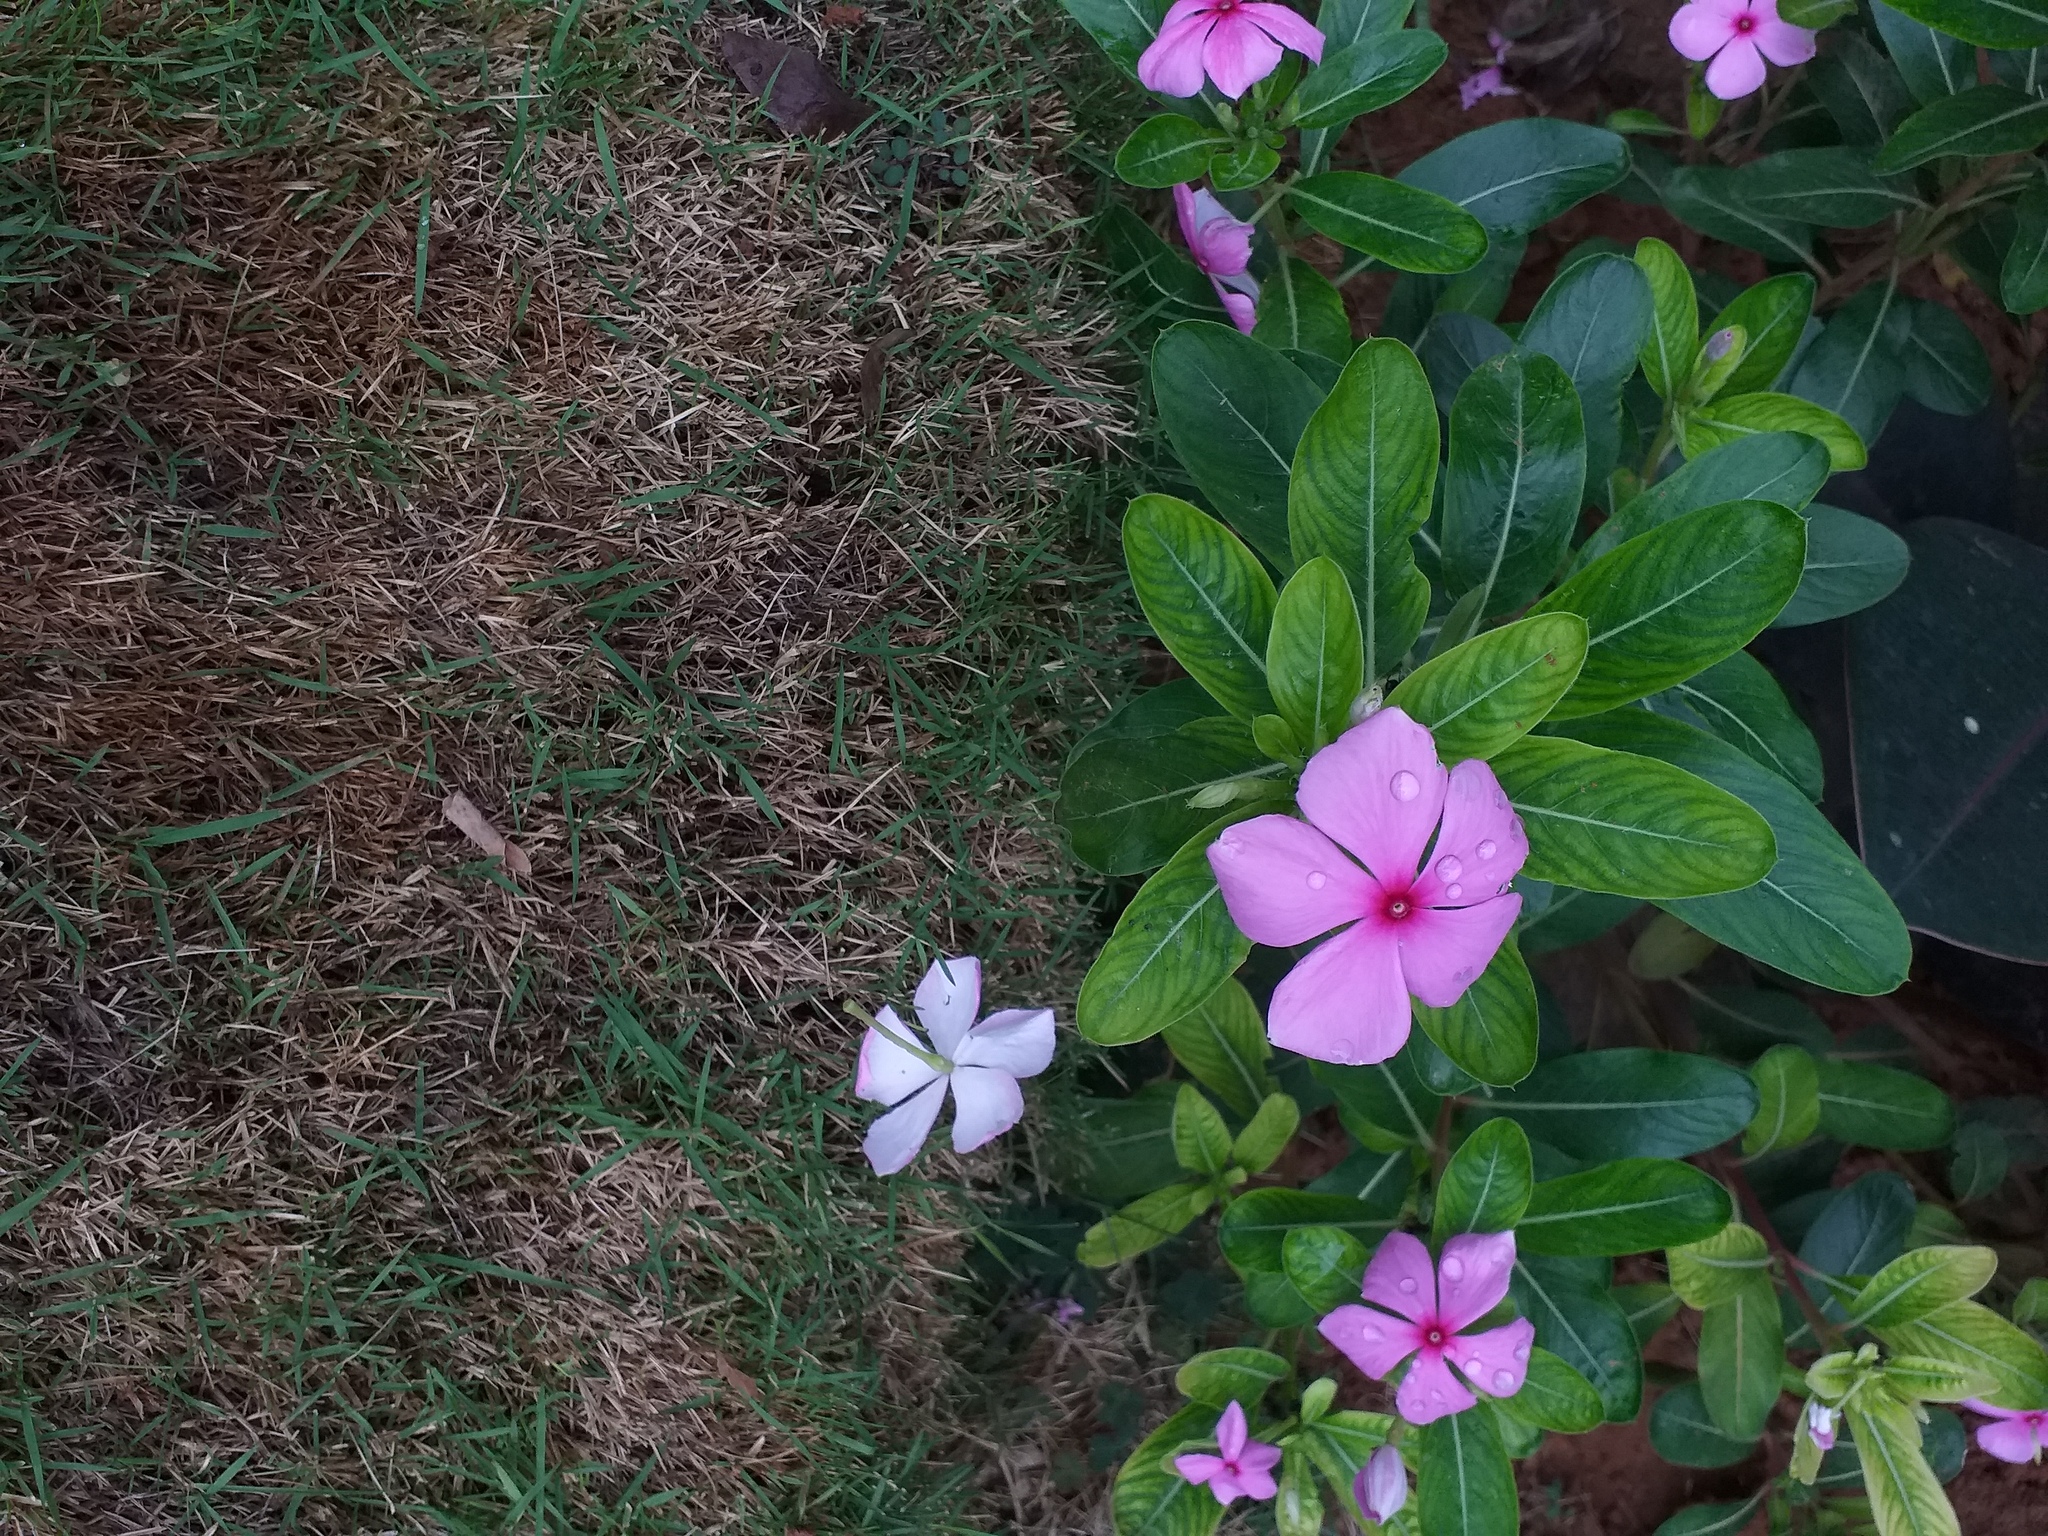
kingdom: Plantae
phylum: Tracheophyta
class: Magnoliopsida
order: Gentianales
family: Apocynaceae
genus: Catharanthus
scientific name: Catharanthus roseus
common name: Madagascar periwinkle
